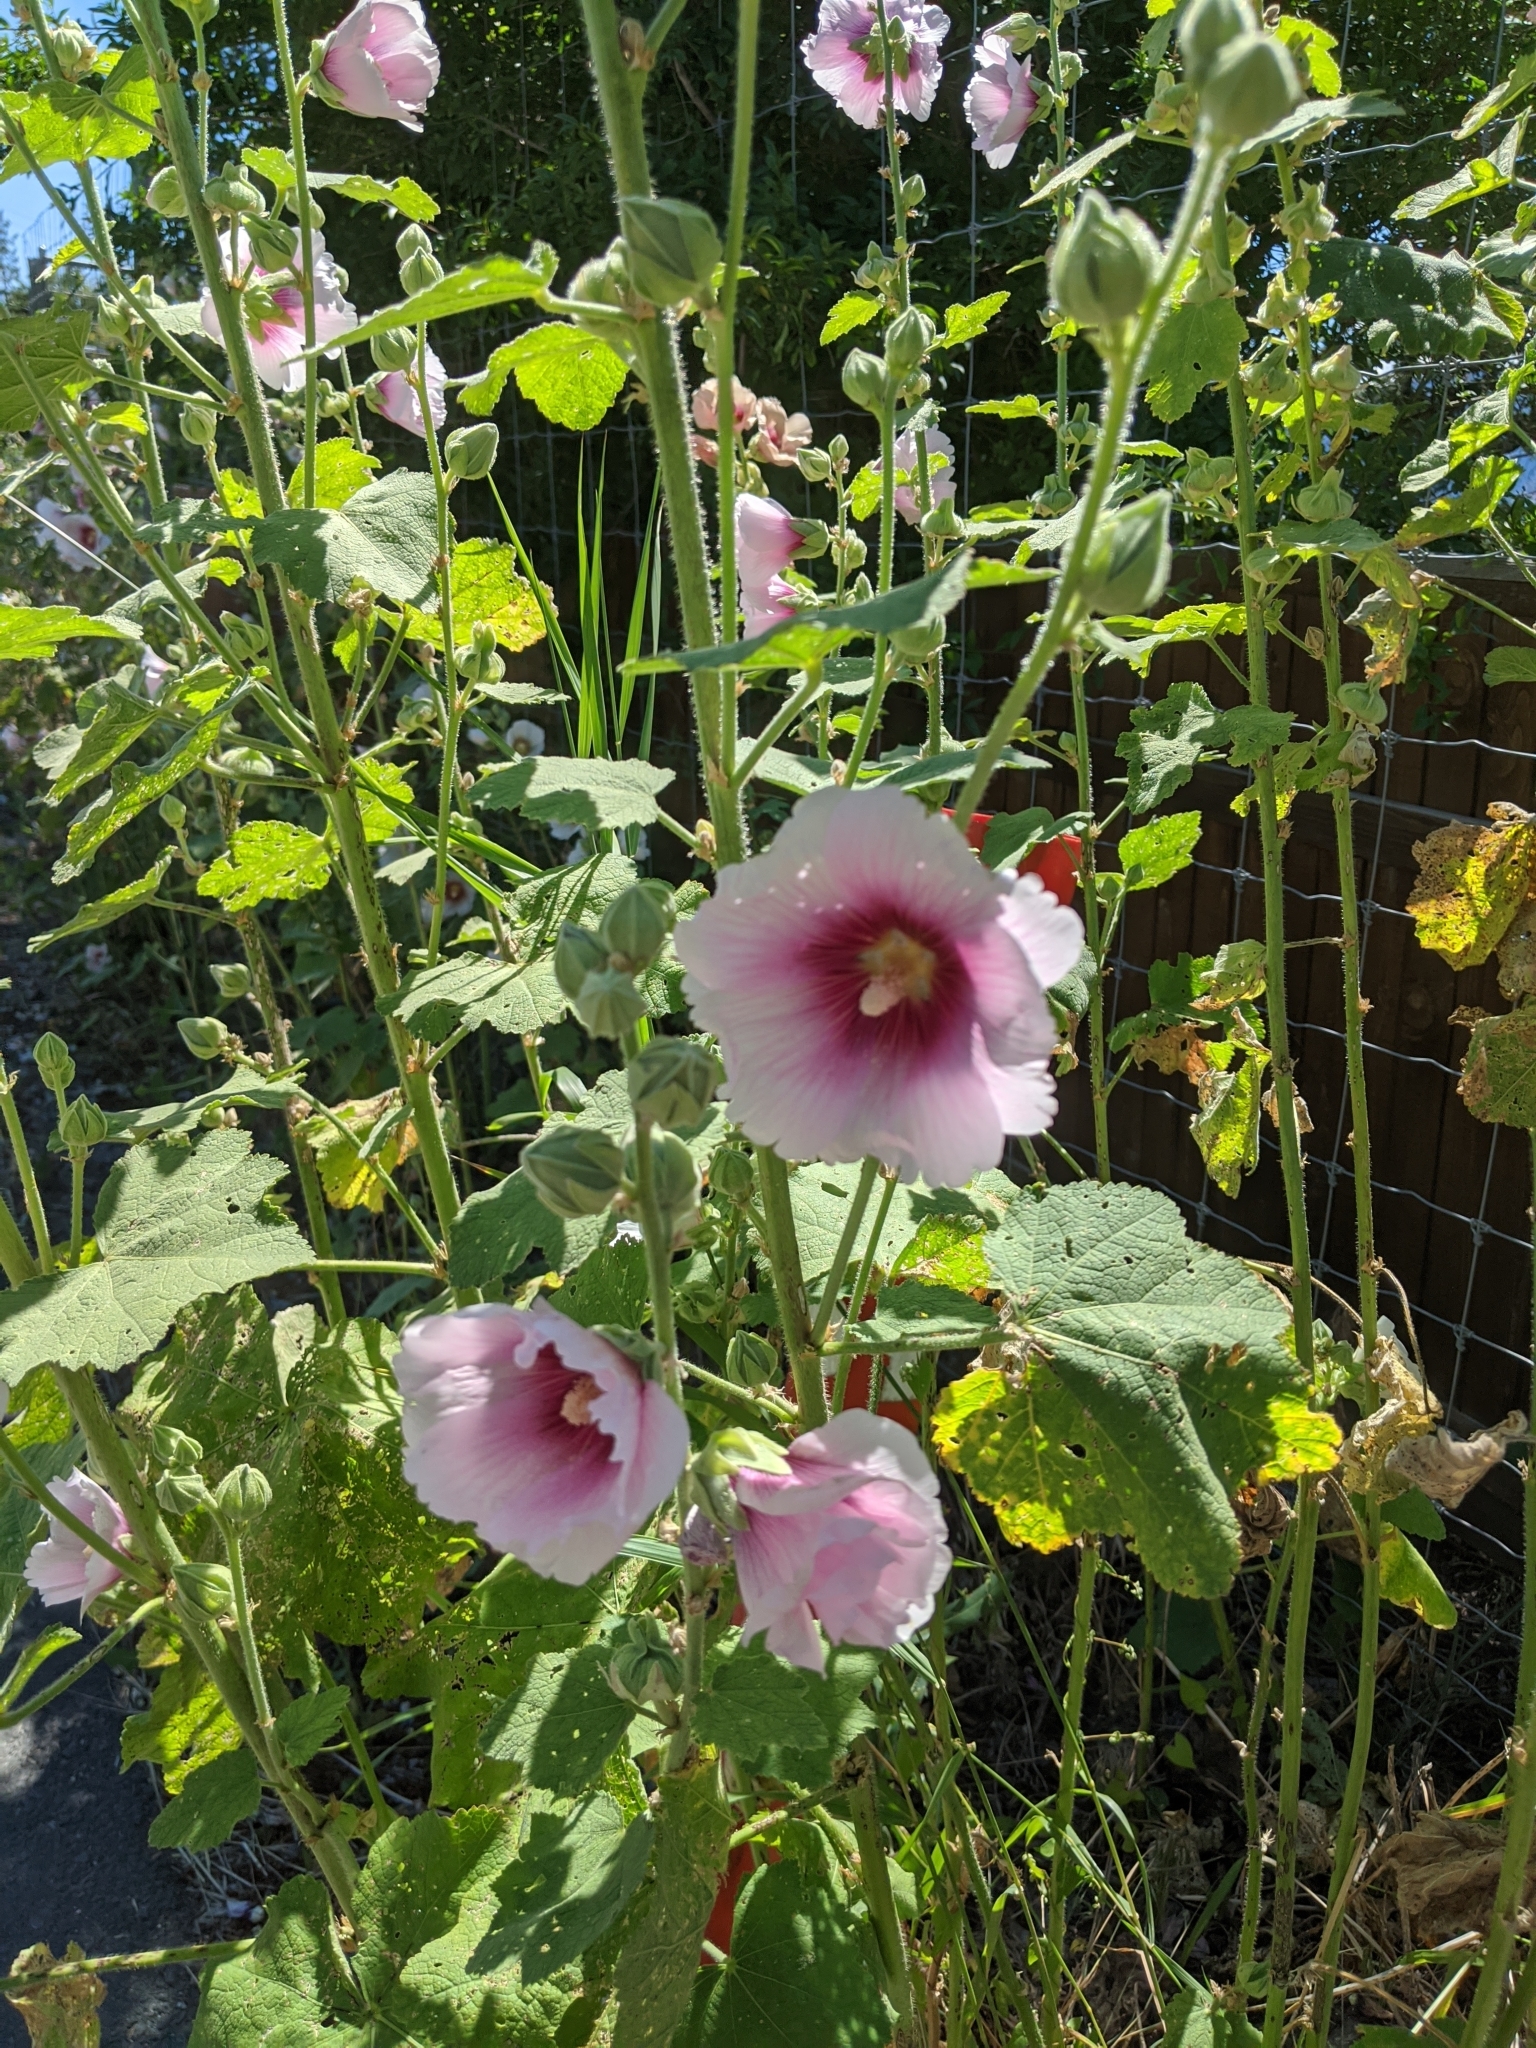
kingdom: Plantae
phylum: Tracheophyta
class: Magnoliopsida
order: Malvales
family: Malvaceae
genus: Alcea
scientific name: Alcea rosea
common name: Hollyhock
